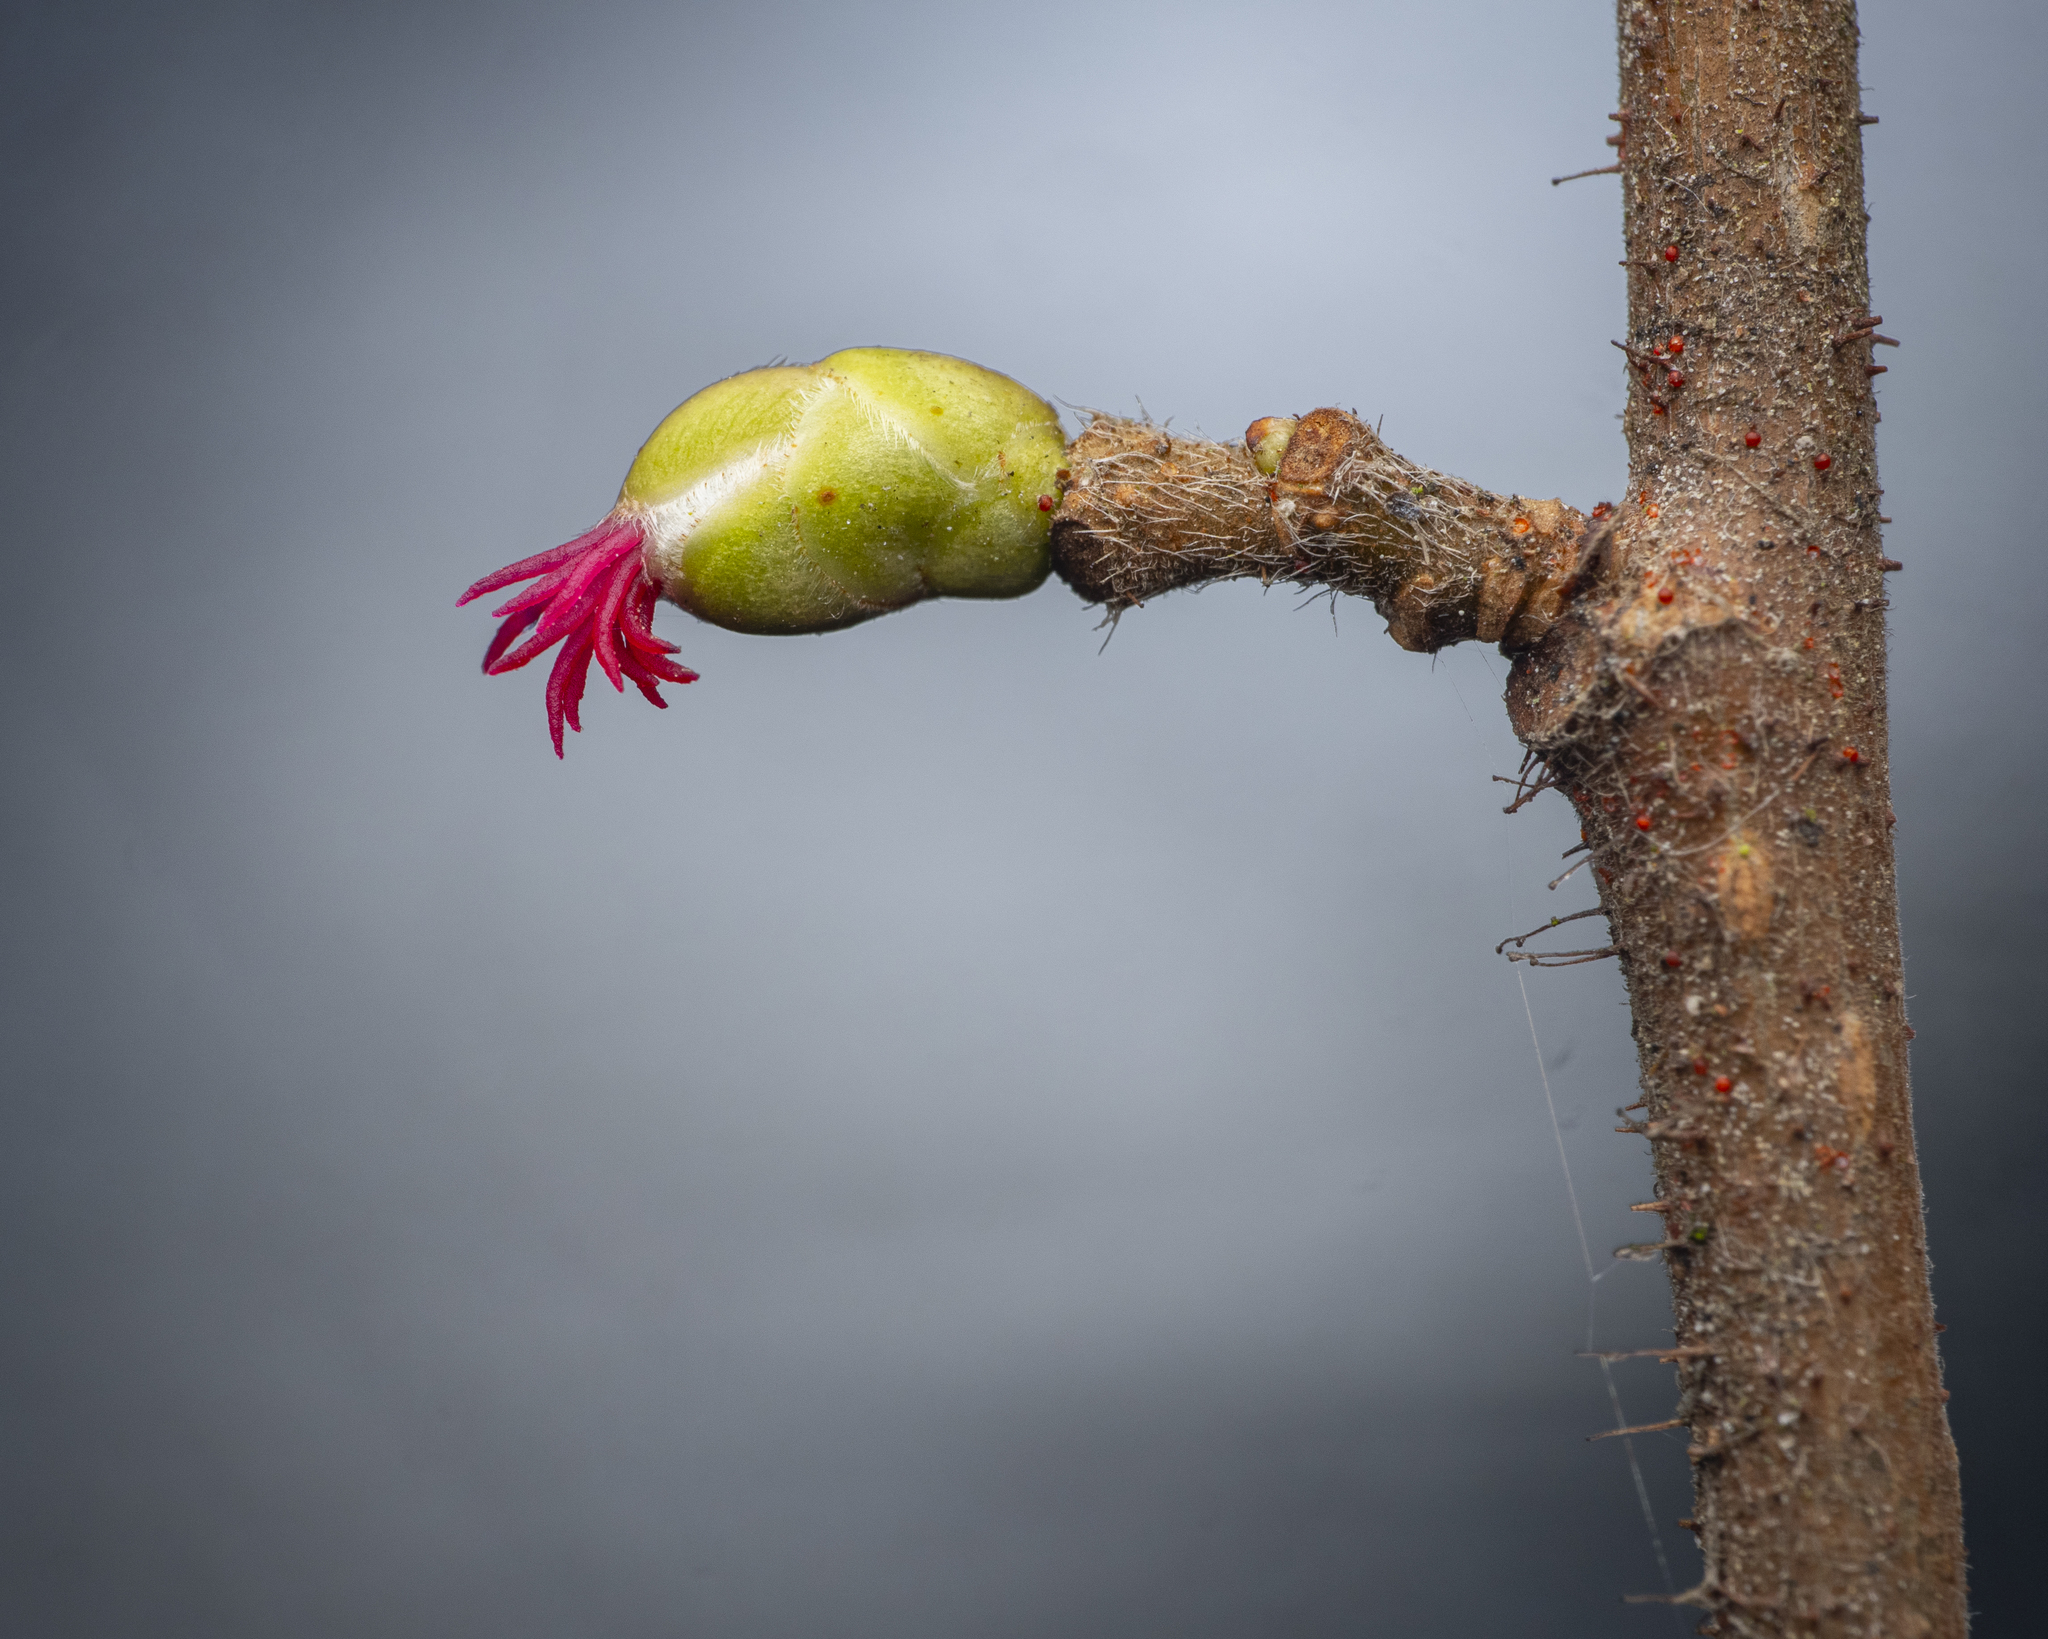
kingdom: Plantae
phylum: Tracheophyta
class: Magnoliopsida
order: Fagales
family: Betulaceae
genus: Corylus
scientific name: Corylus avellana
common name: European hazel
